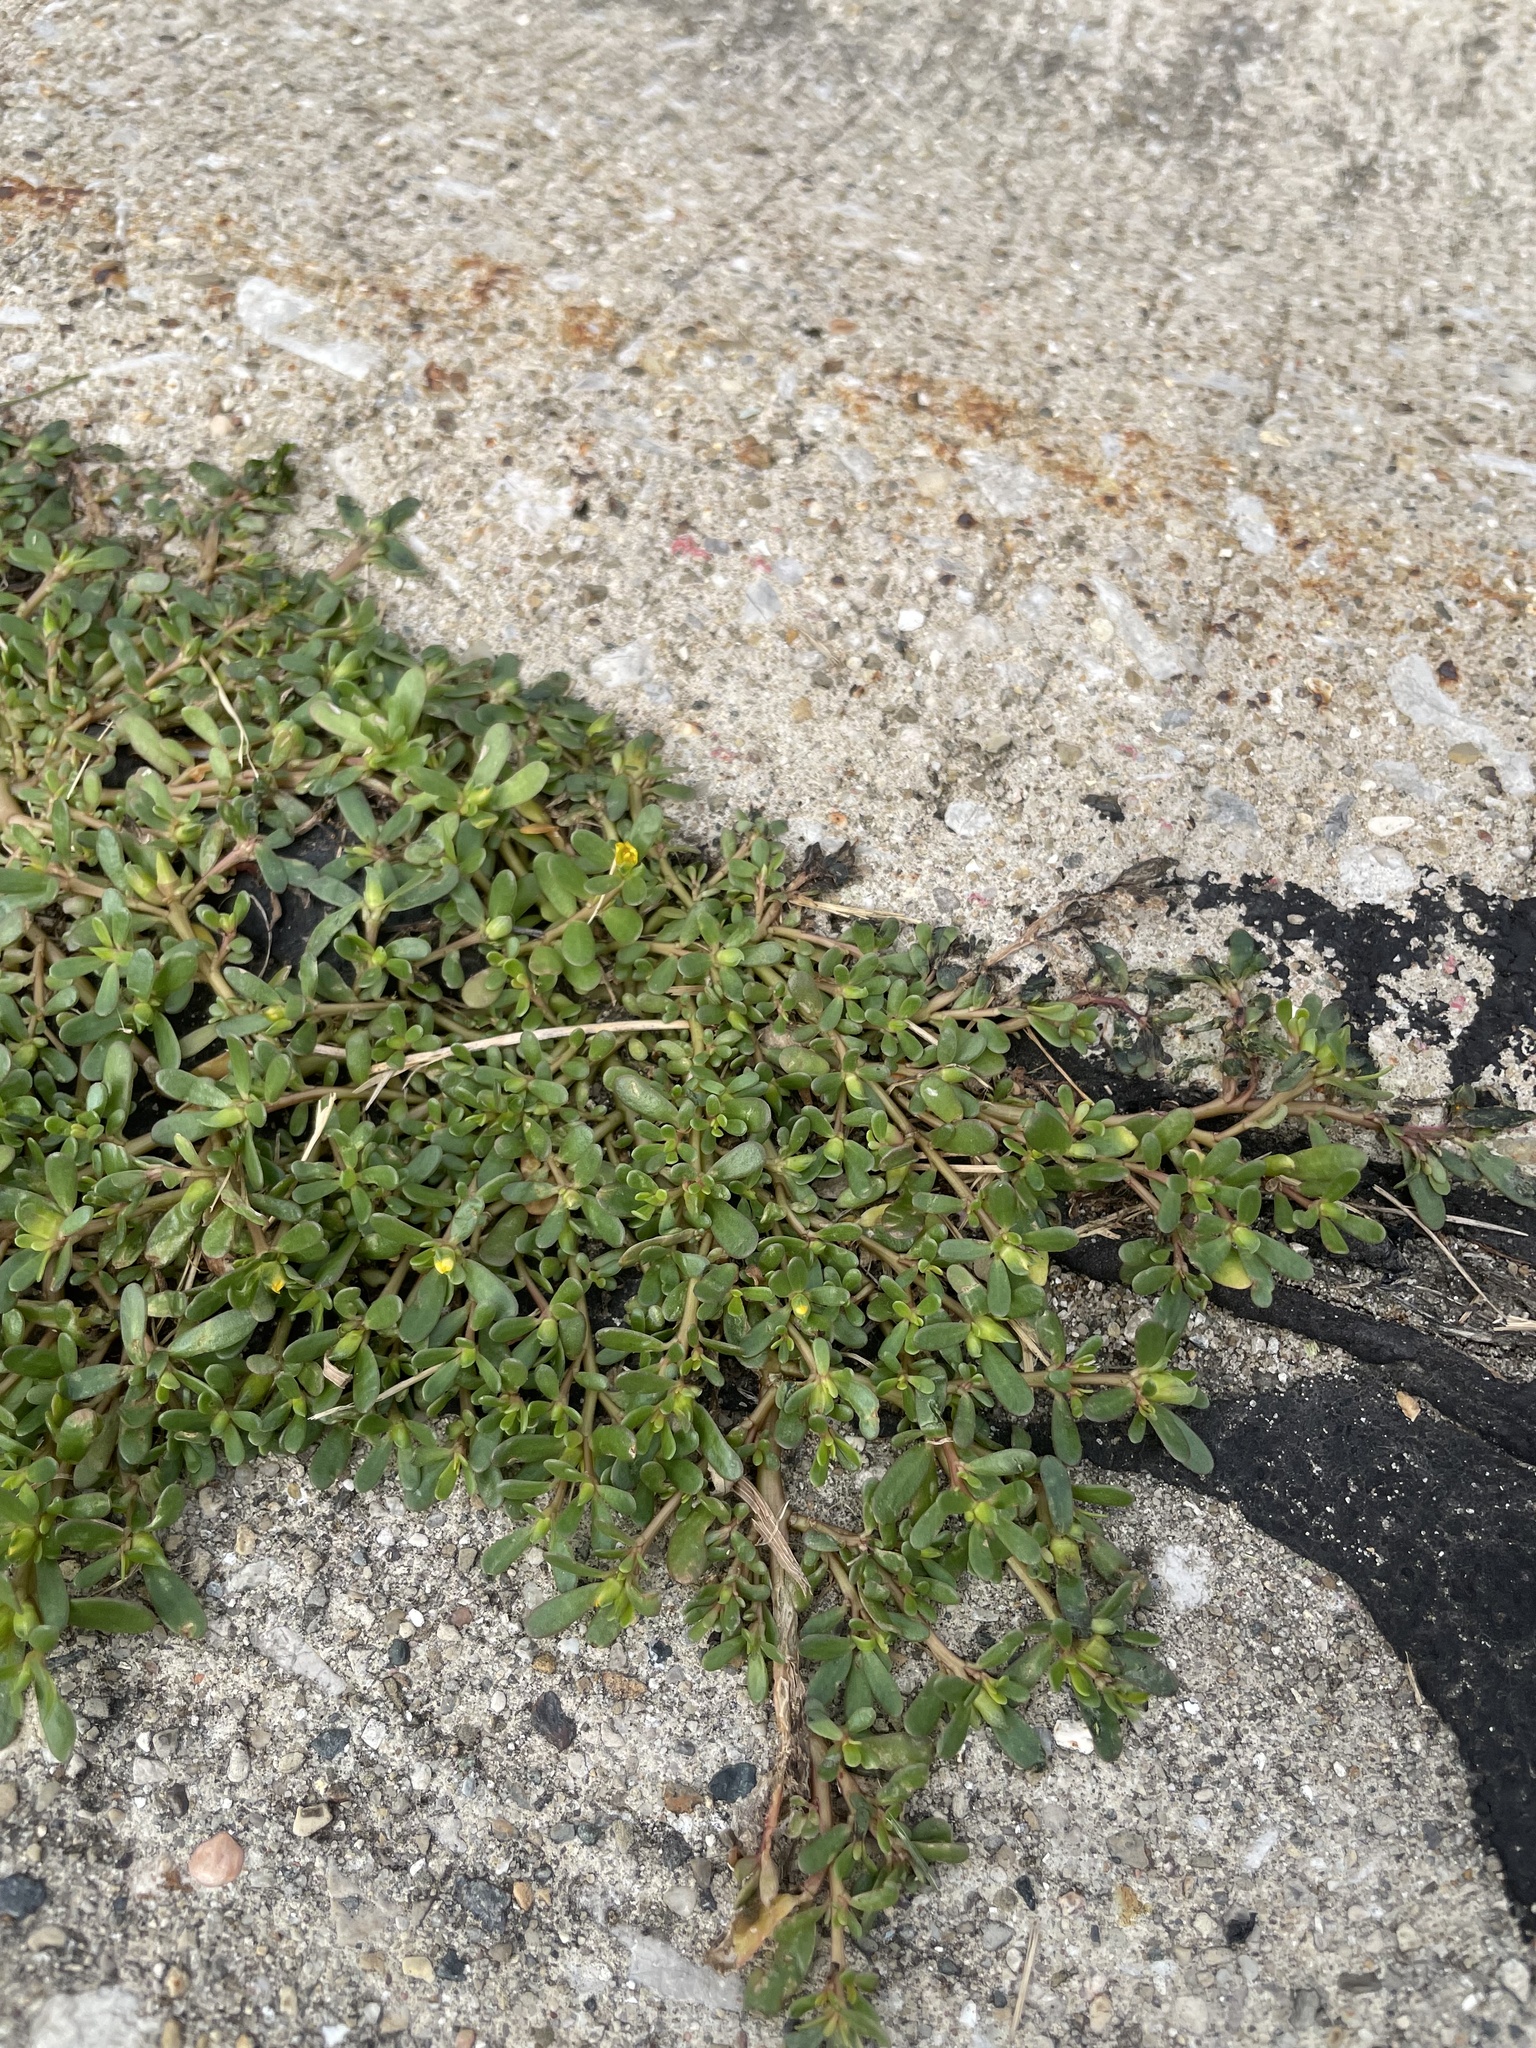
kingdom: Plantae
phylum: Tracheophyta
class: Magnoliopsida
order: Caryophyllales
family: Portulacaceae
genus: Portulaca
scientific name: Portulaca oleracea
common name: Common purslane
